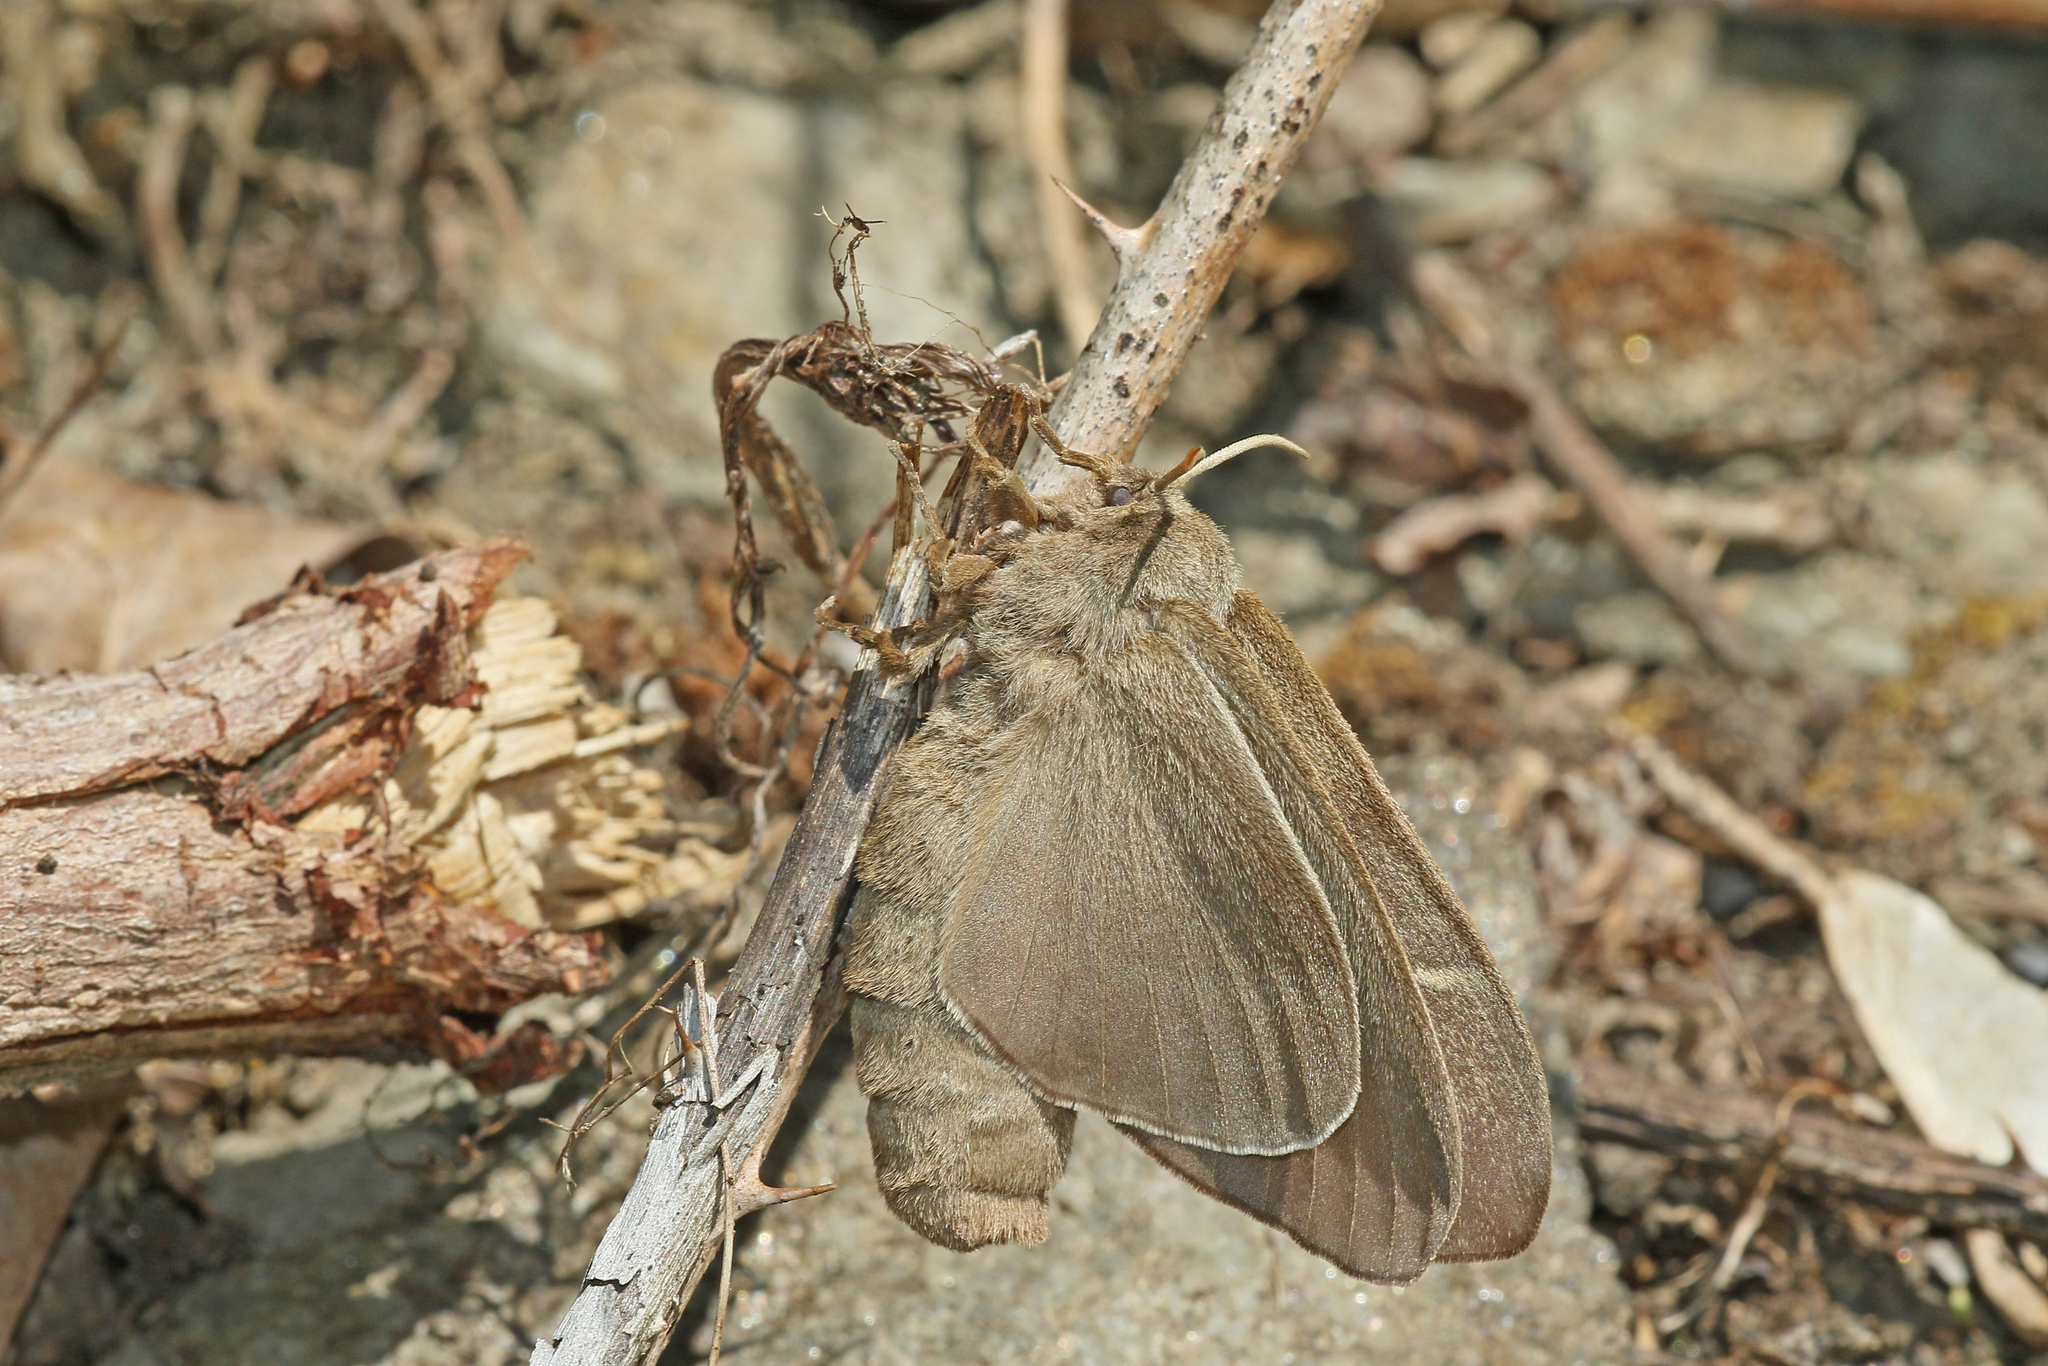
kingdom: Animalia
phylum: Arthropoda
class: Insecta
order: Lepidoptera
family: Lasiocampidae
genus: Macrothylacia
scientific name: Macrothylacia rubi
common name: Fox moth
